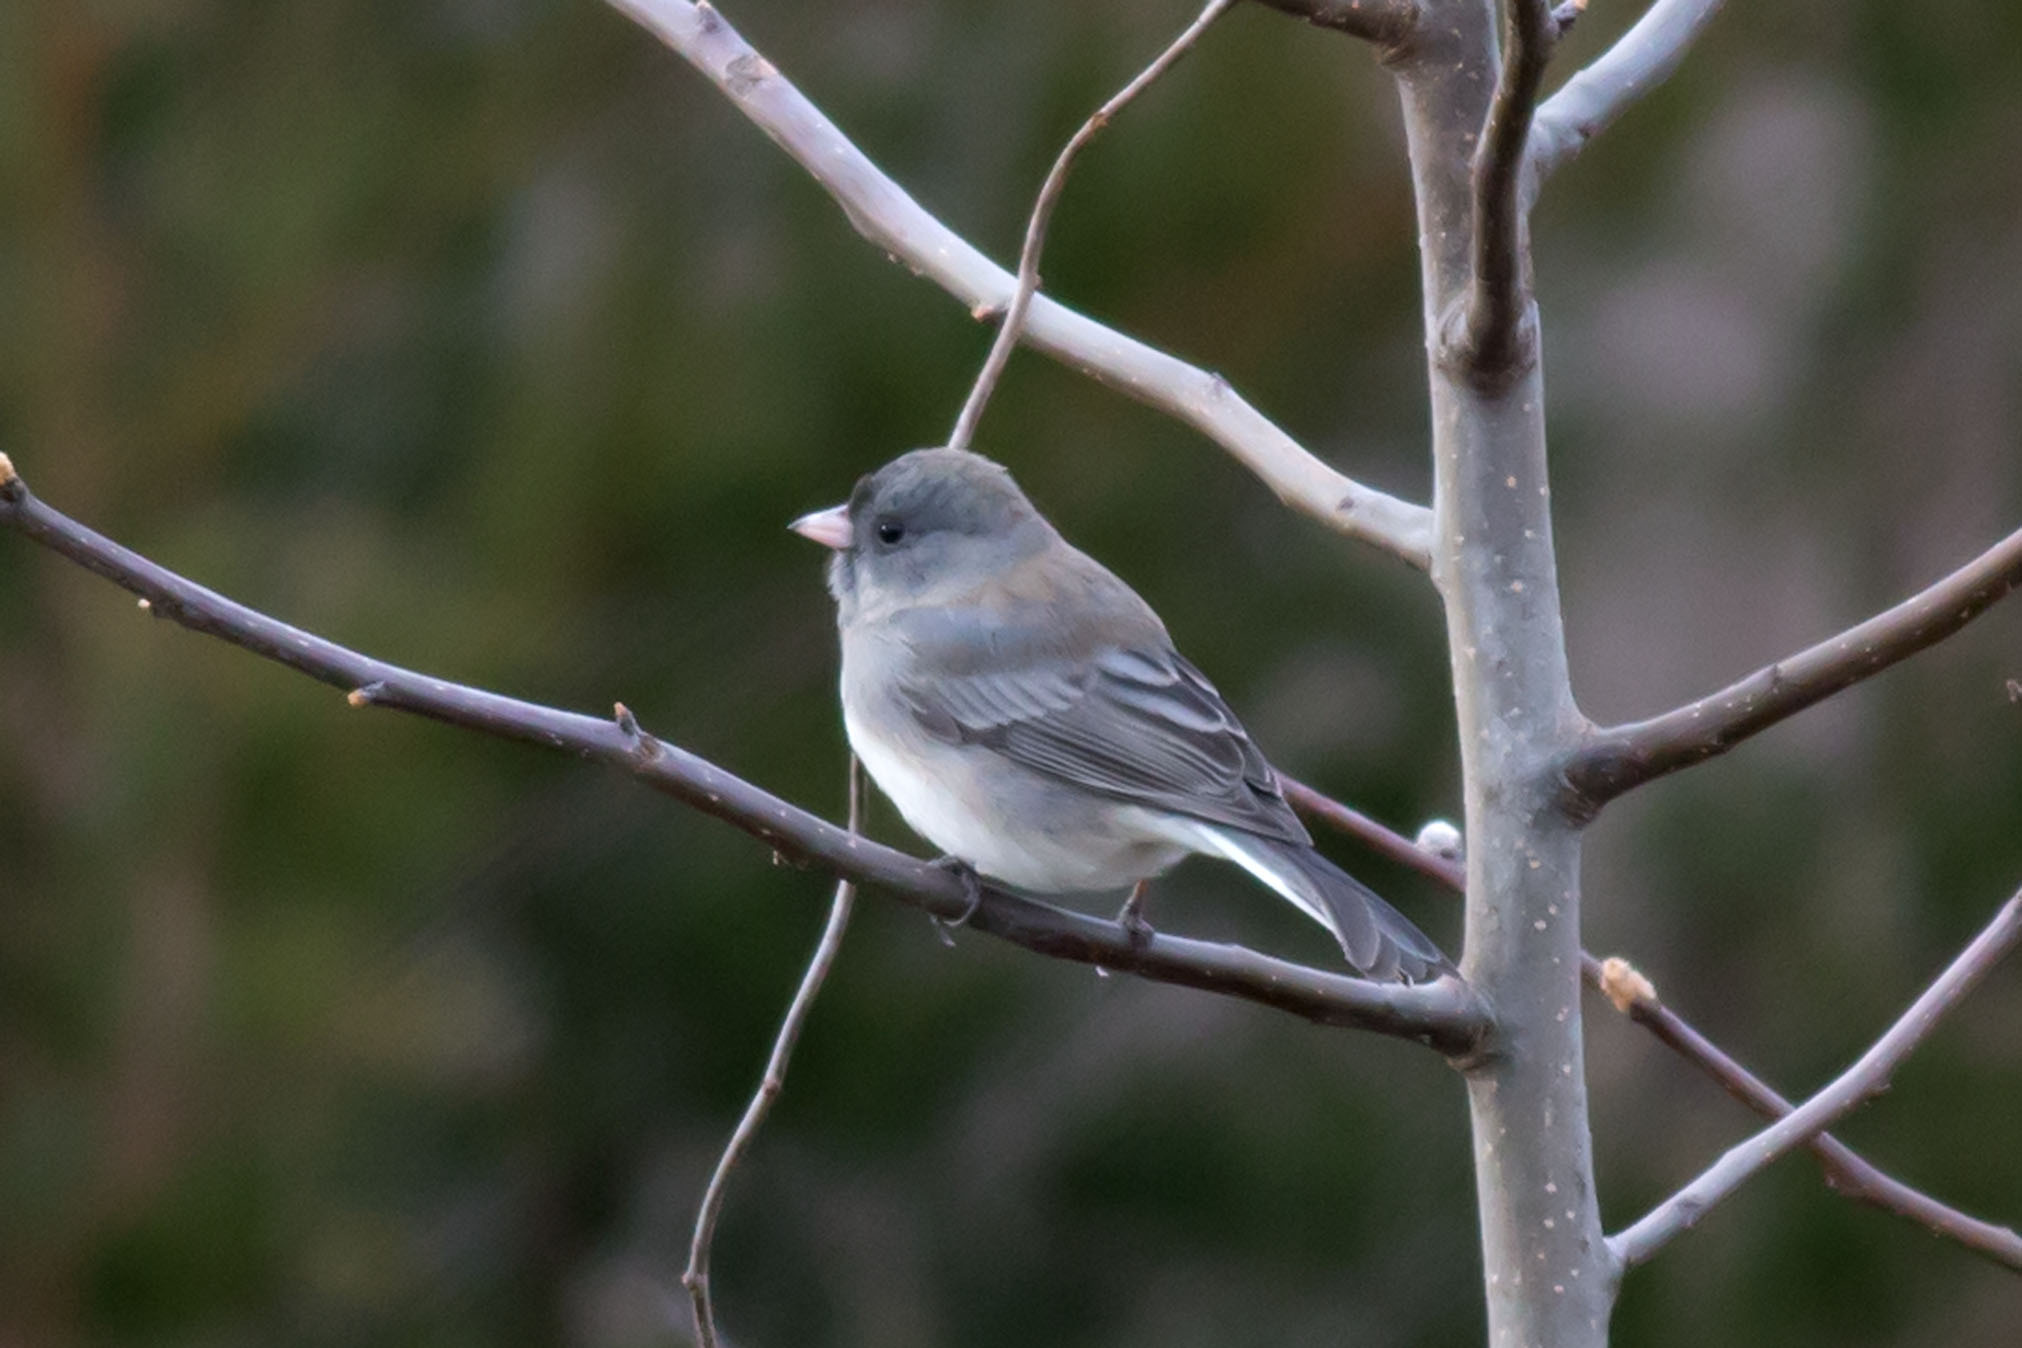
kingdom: Animalia
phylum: Chordata
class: Aves
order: Passeriformes
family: Passerellidae
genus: Junco
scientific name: Junco hyemalis
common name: Dark-eyed junco
